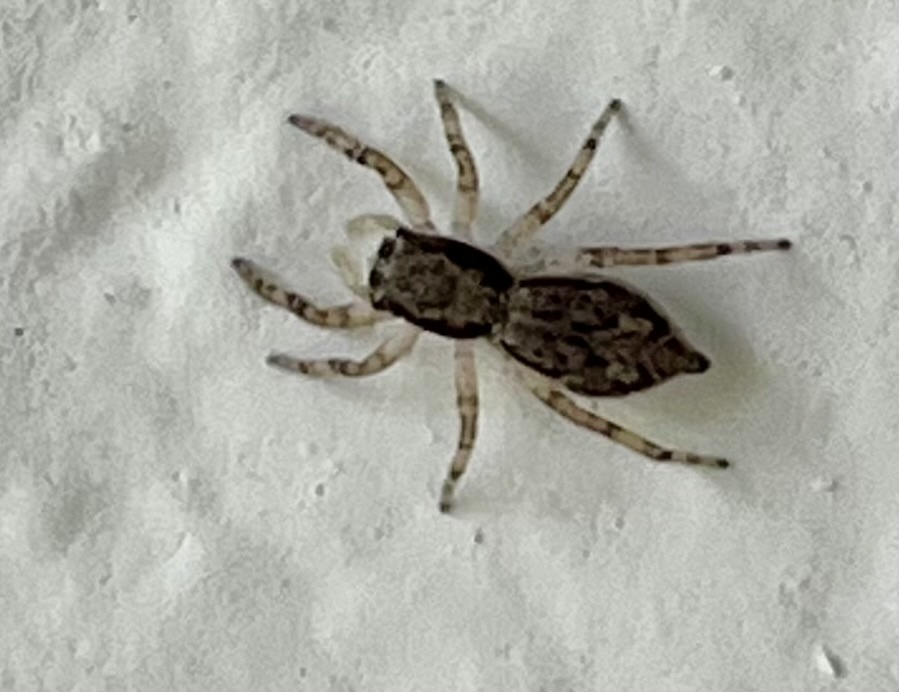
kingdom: Animalia
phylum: Arthropoda
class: Arachnida
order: Araneae
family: Salticidae
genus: Menemerus
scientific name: Menemerus bivittatus
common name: Gray wall jumper
